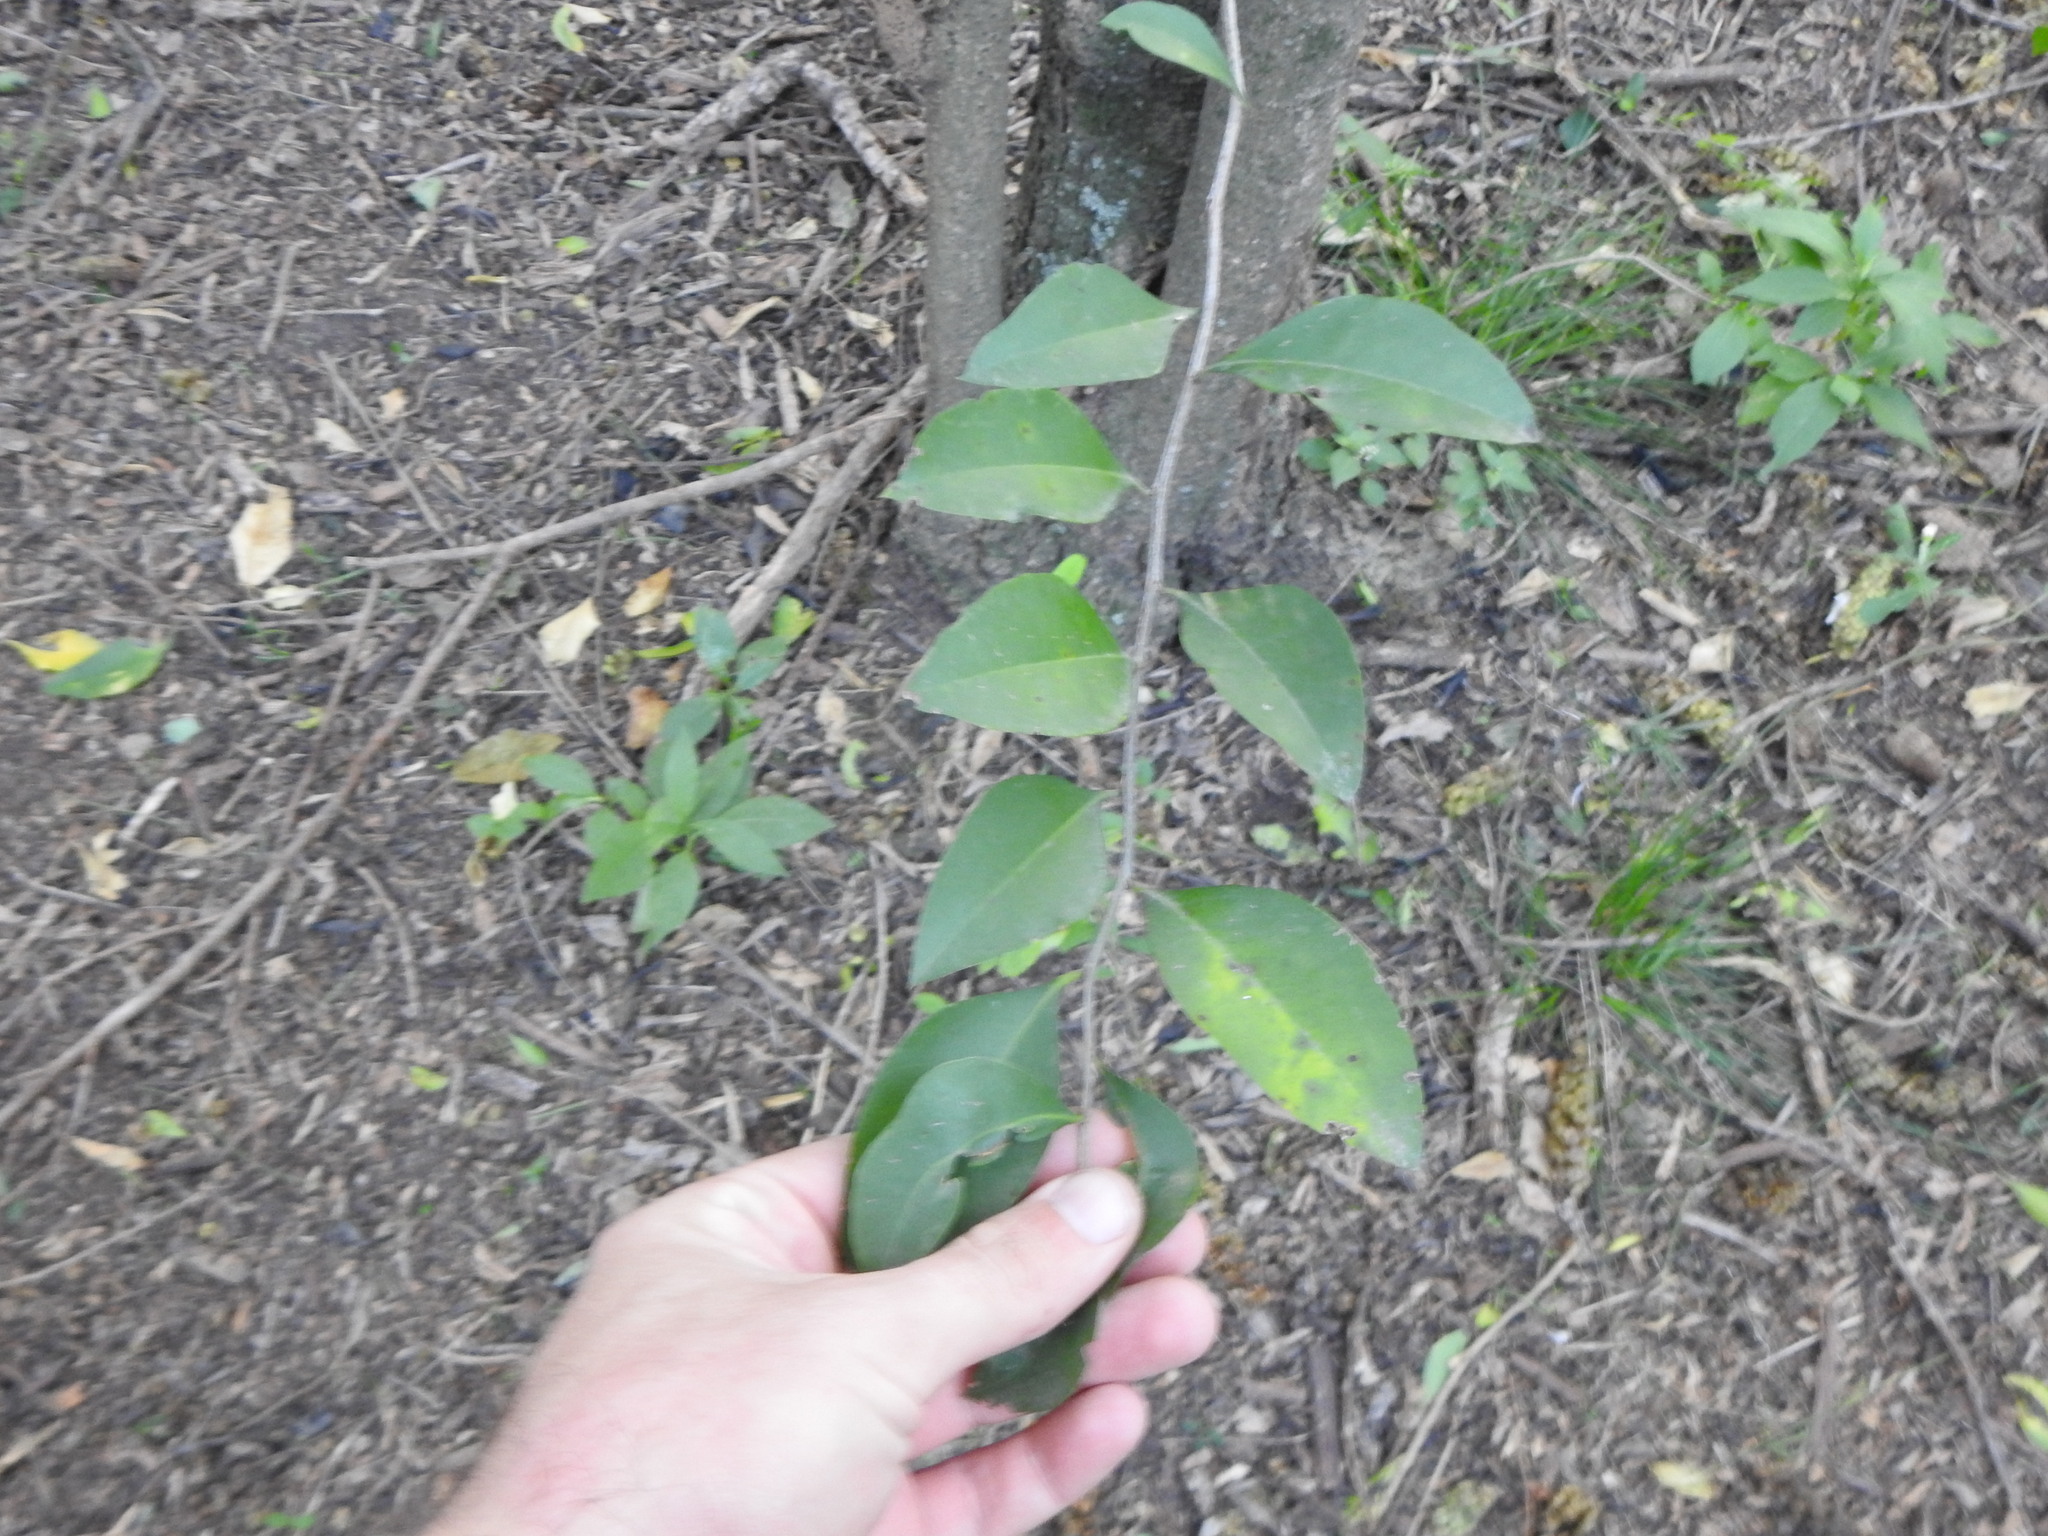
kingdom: Plantae
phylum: Tracheophyta
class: Magnoliopsida
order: Malpighiales
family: Euphorbiaceae
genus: Sebastiania
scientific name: Sebastiania brasiliensis
